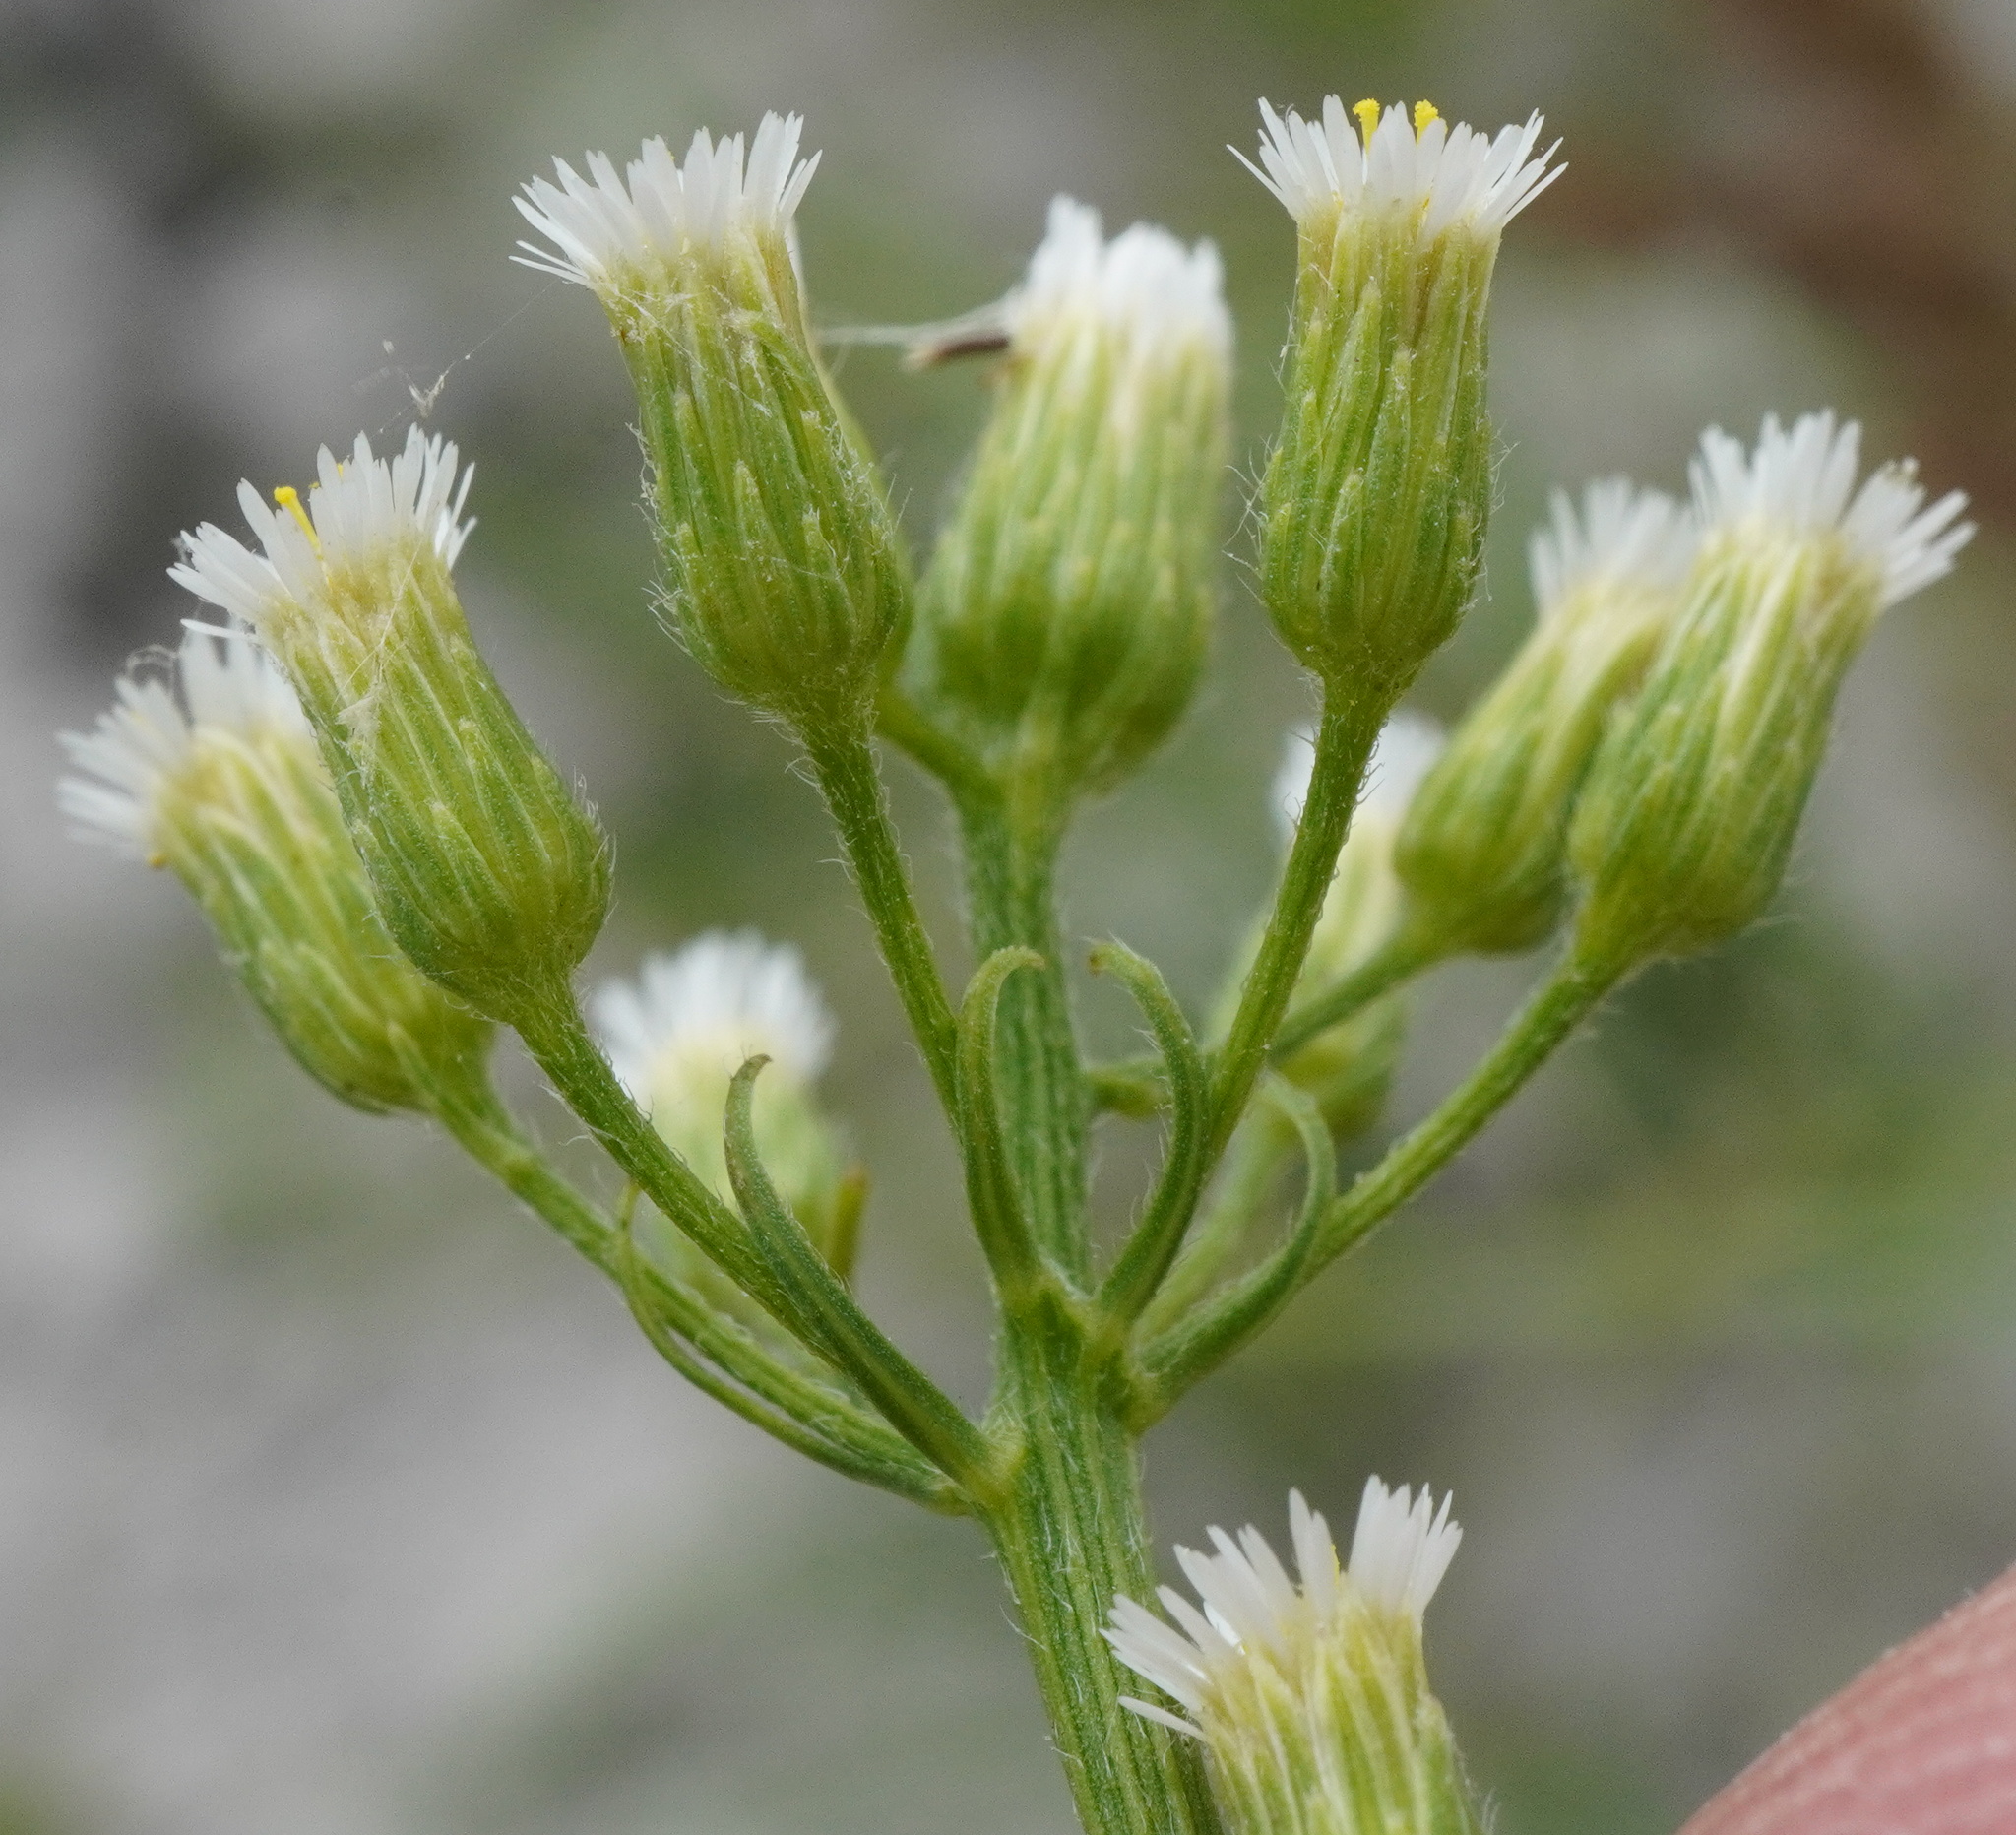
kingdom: Plantae
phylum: Tracheophyta
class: Magnoliopsida
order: Asterales
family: Asteraceae
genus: Erigeron
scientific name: Erigeron canadensis
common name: Canadian fleabane
